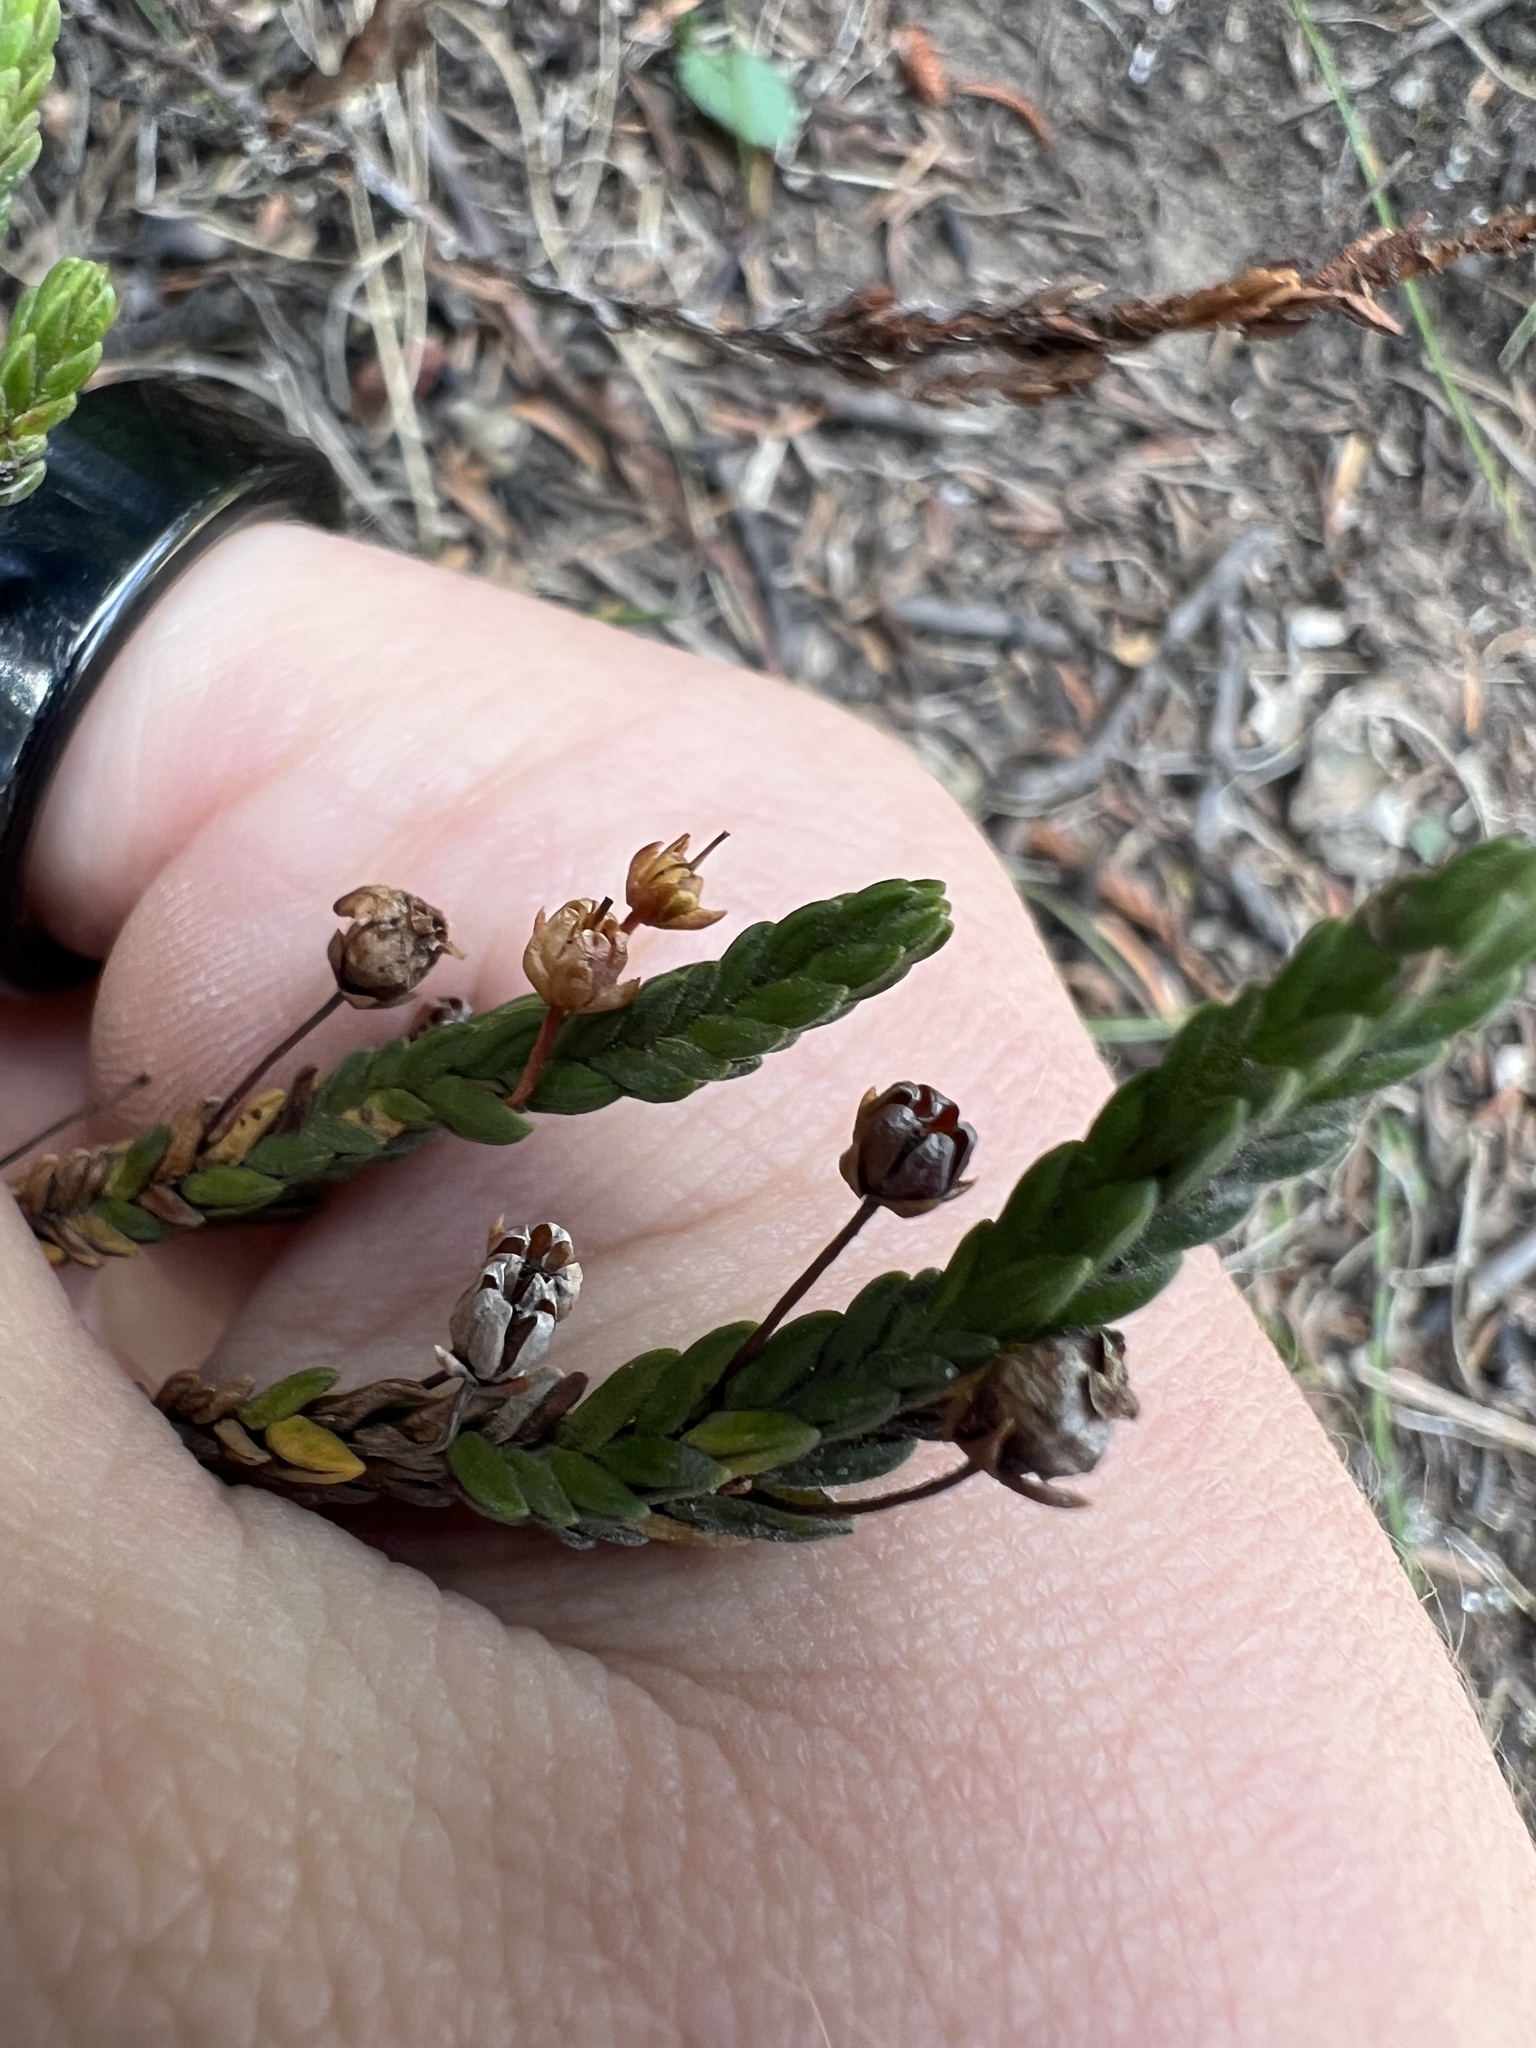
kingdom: Plantae
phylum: Tracheophyta
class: Magnoliopsida
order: Ericales
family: Ericaceae
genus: Cassiope
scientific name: Cassiope tetragona
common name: Arctic bell heather
